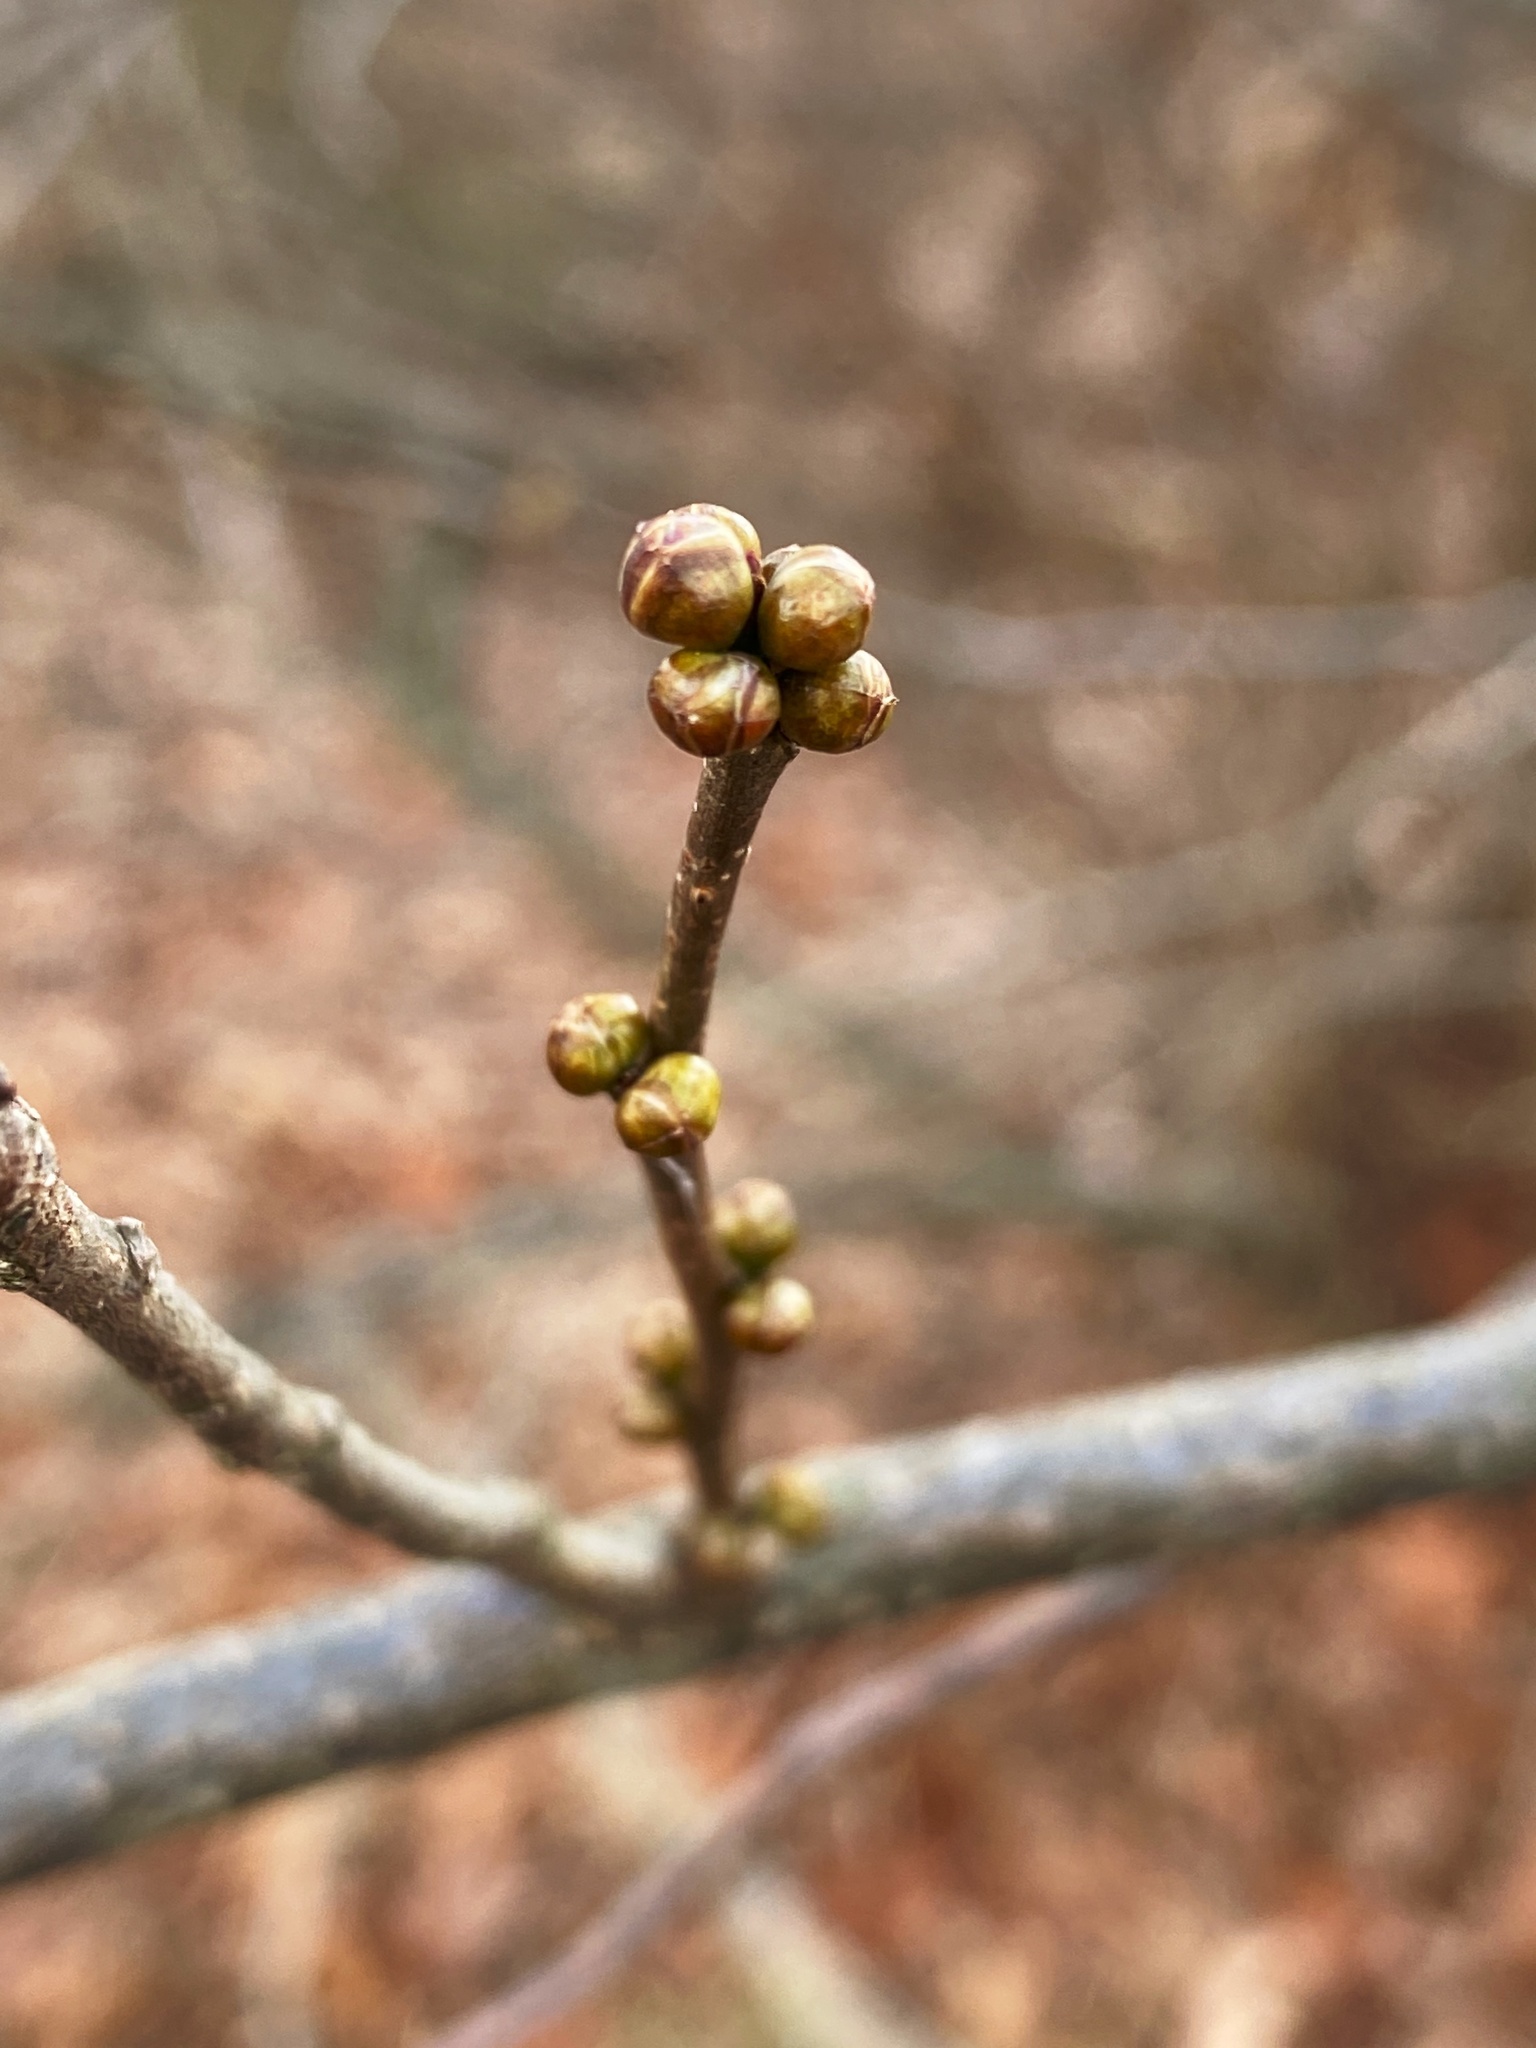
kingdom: Plantae
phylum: Tracheophyta
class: Magnoliopsida
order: Laurales
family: Lauraceae
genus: Lindera
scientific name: Lindera benzoin
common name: Spicebush
